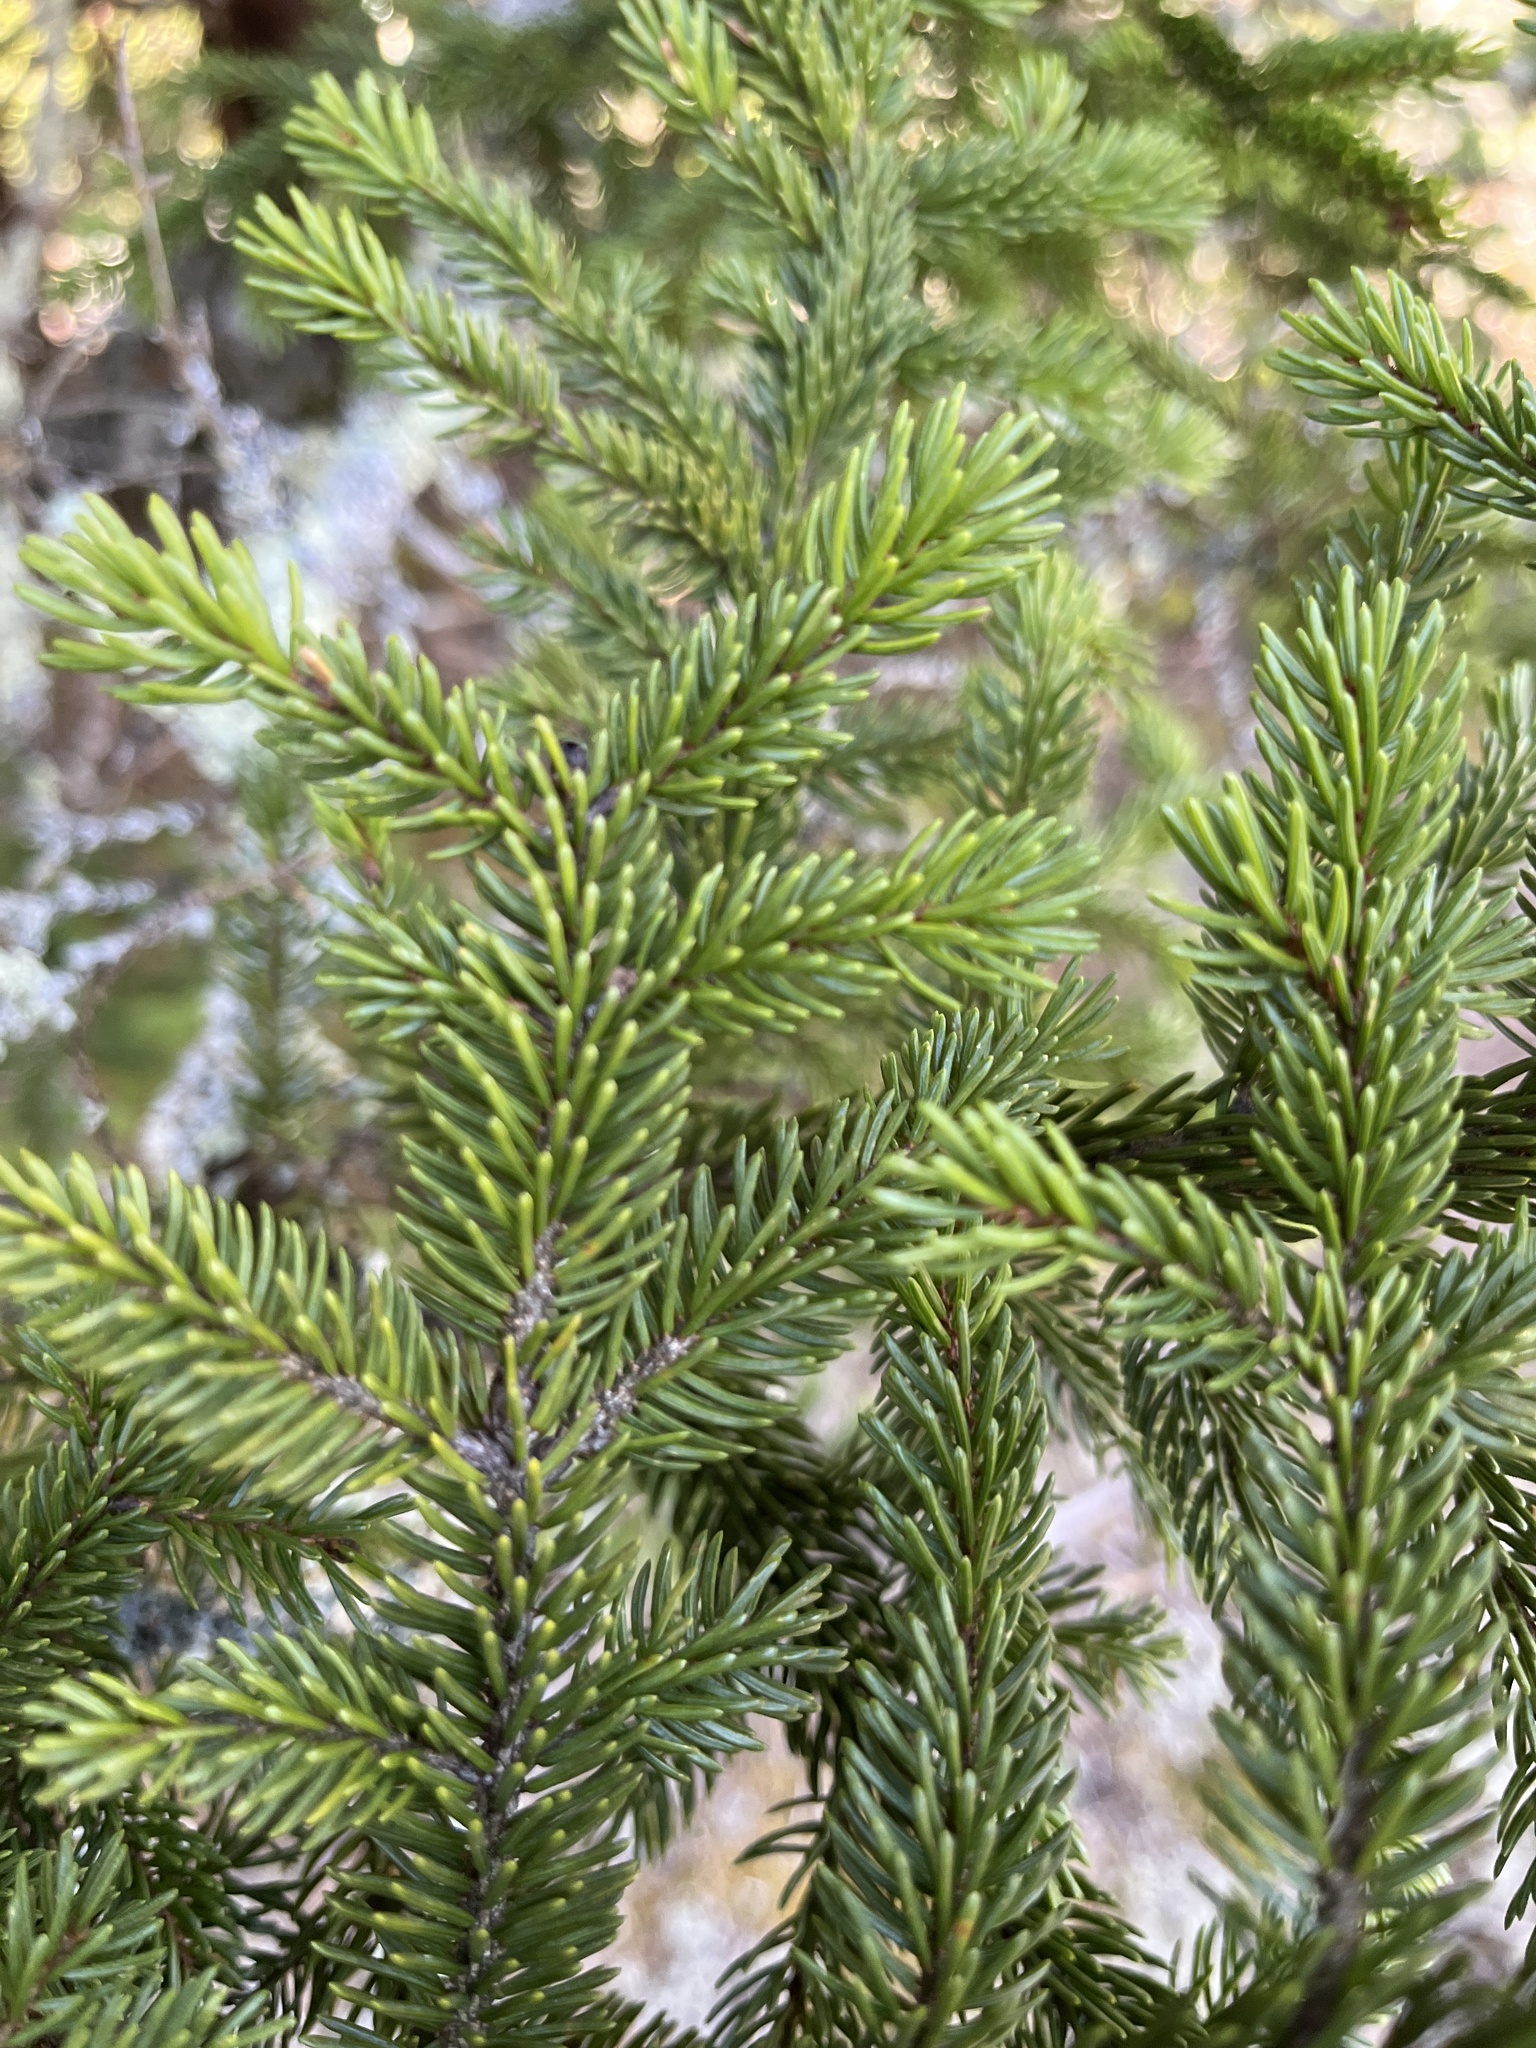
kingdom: Plantae
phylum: Tracheophyta
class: Pinopsida
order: Pinales
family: Pinaceae
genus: Picea
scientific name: Picea rubens
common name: Red spruce
